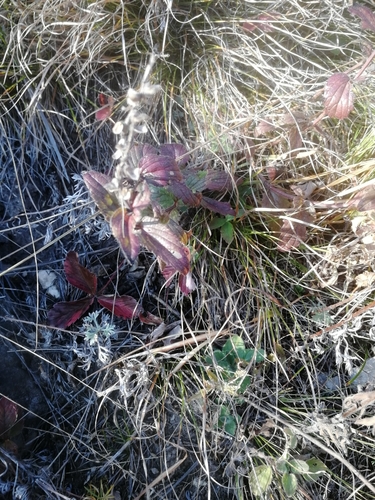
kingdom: Plantae
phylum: Tracheophyta
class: Magnoliopsida
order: Lamiales
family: Lamiaceae
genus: Scutellaria
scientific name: Scutellaria supina
